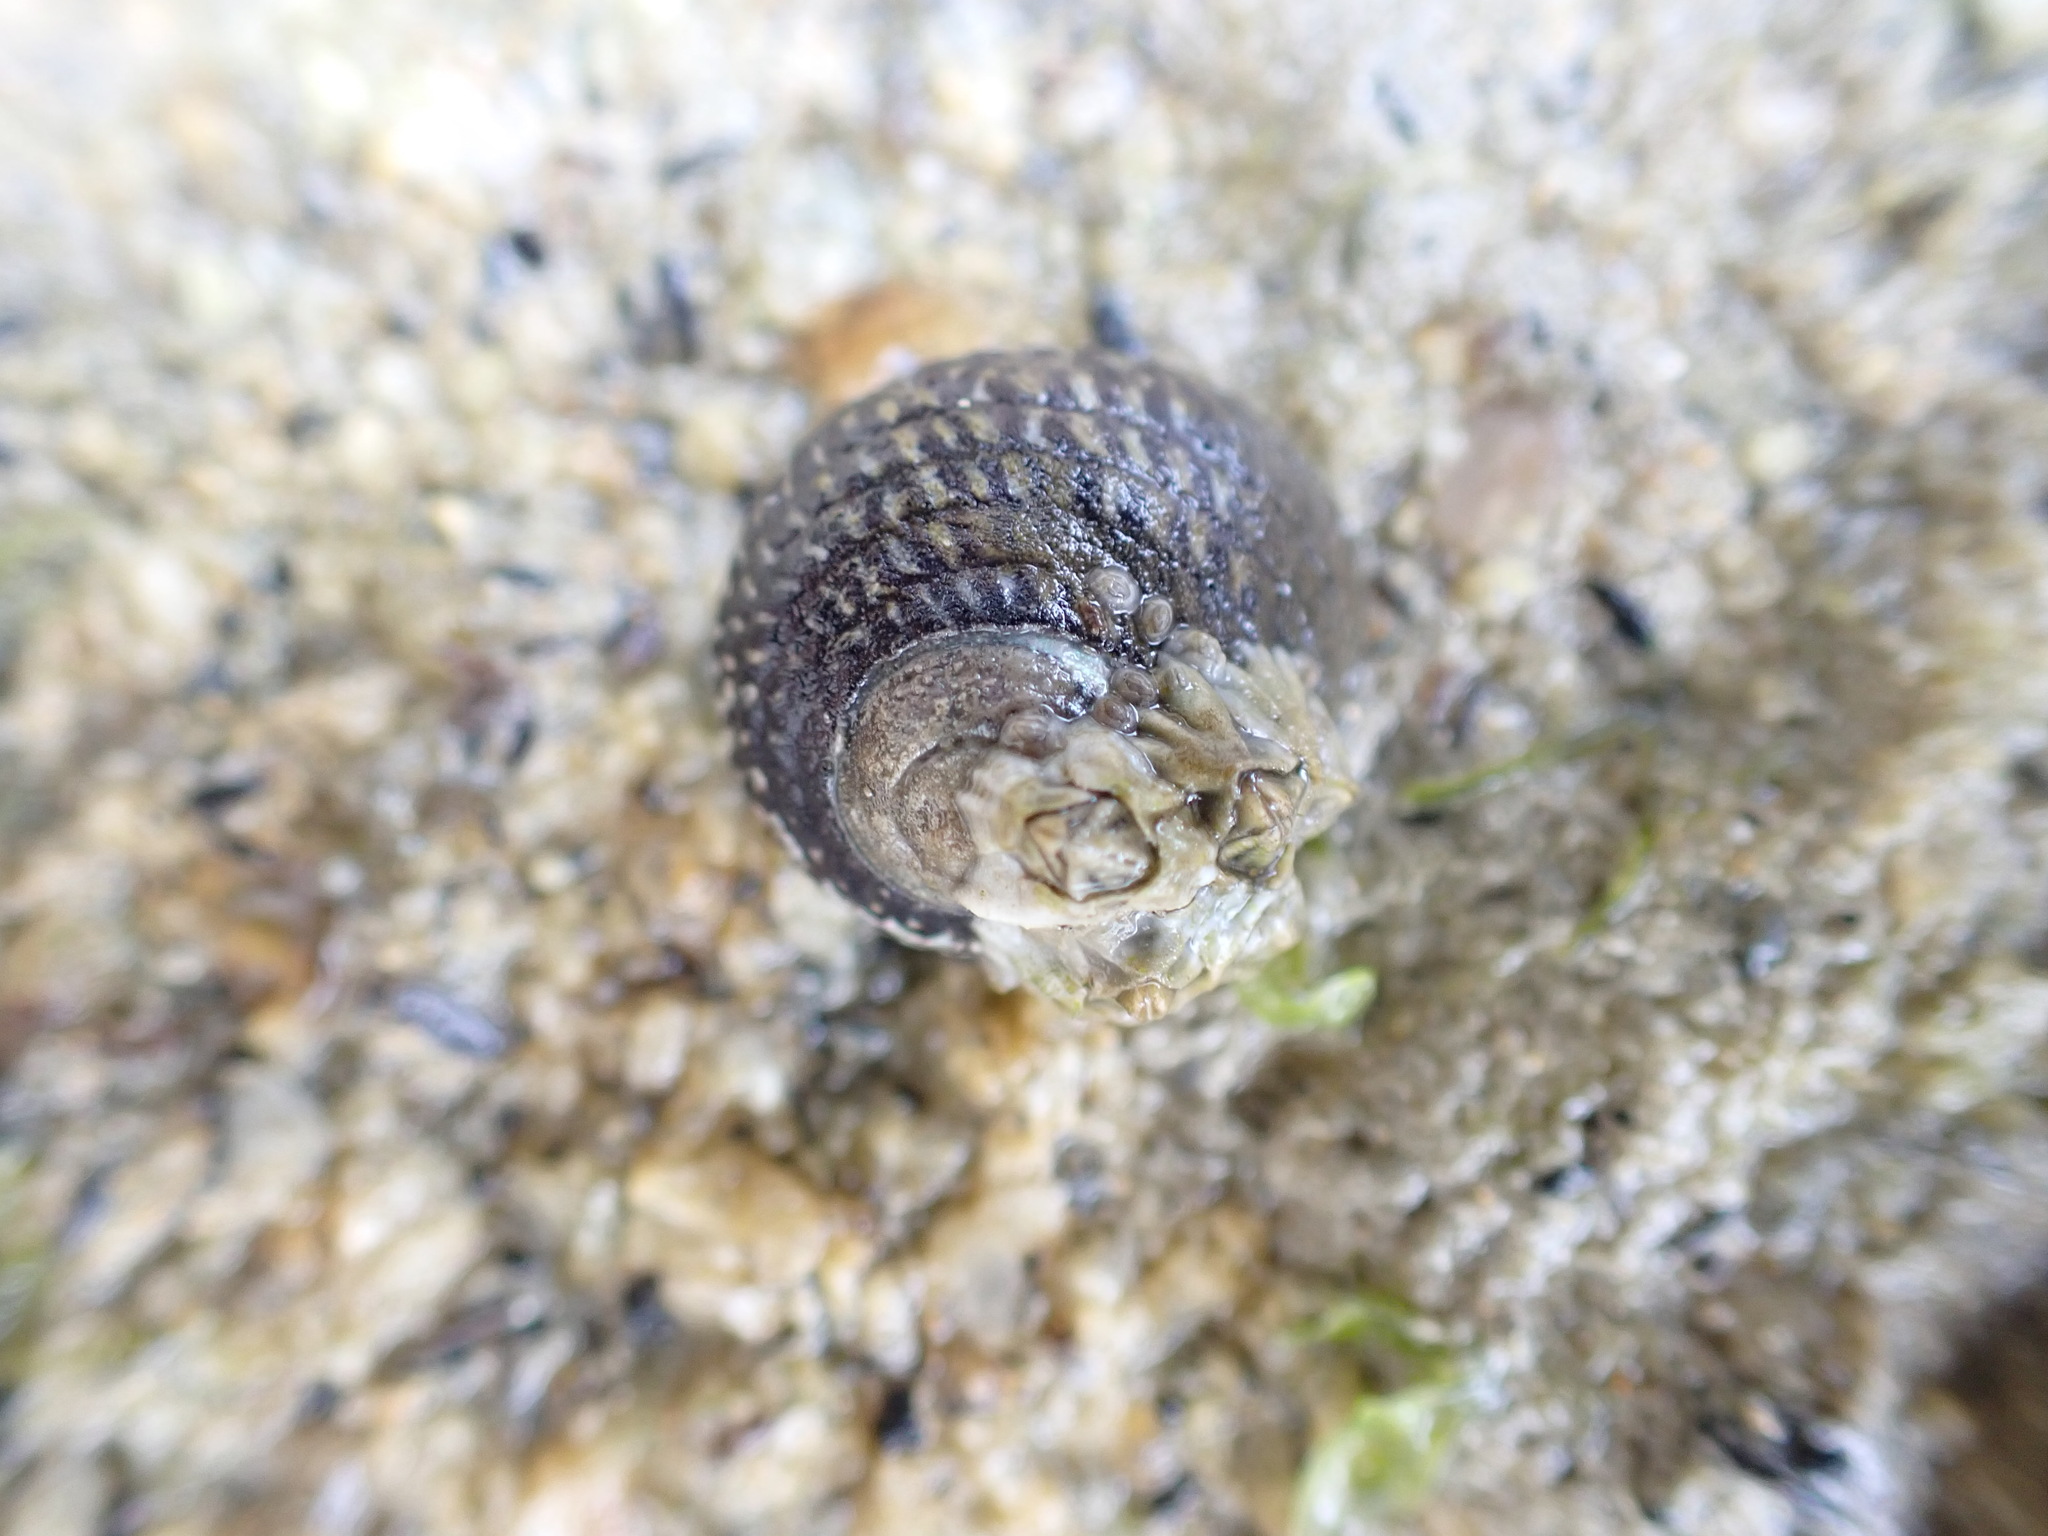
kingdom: Animalia
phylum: Mollusca
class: Gastropoda
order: Trochida
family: Trochidae
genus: Diloma
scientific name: Diloma aethiops
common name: Scorched monodont
